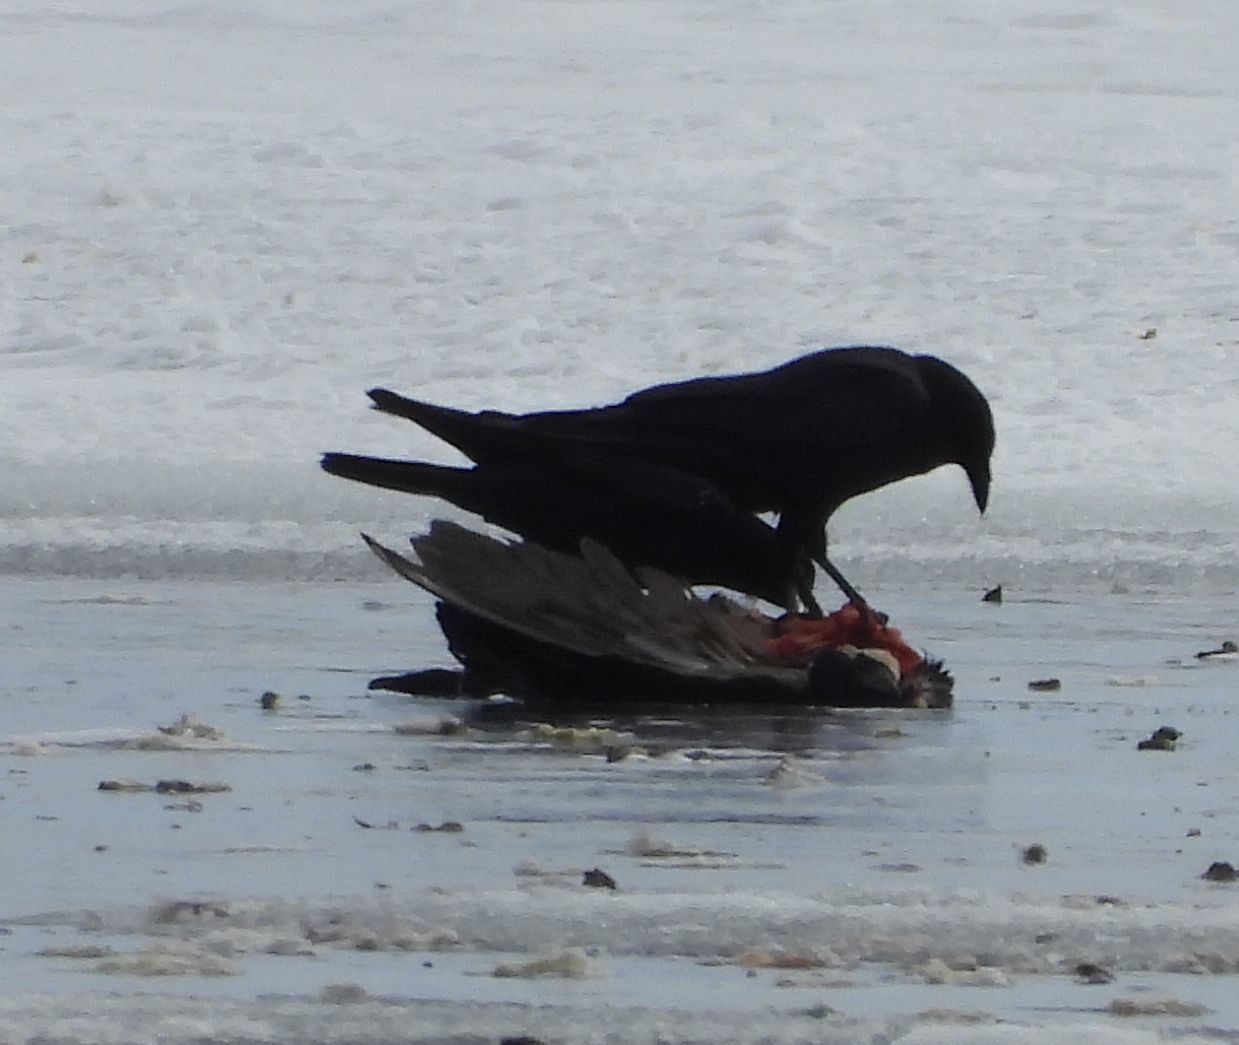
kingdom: Animalia
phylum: Chordata
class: Aves
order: Passeriformes
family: Corvidae
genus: Corvus
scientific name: Corvus brachyrhynchos
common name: American crow
